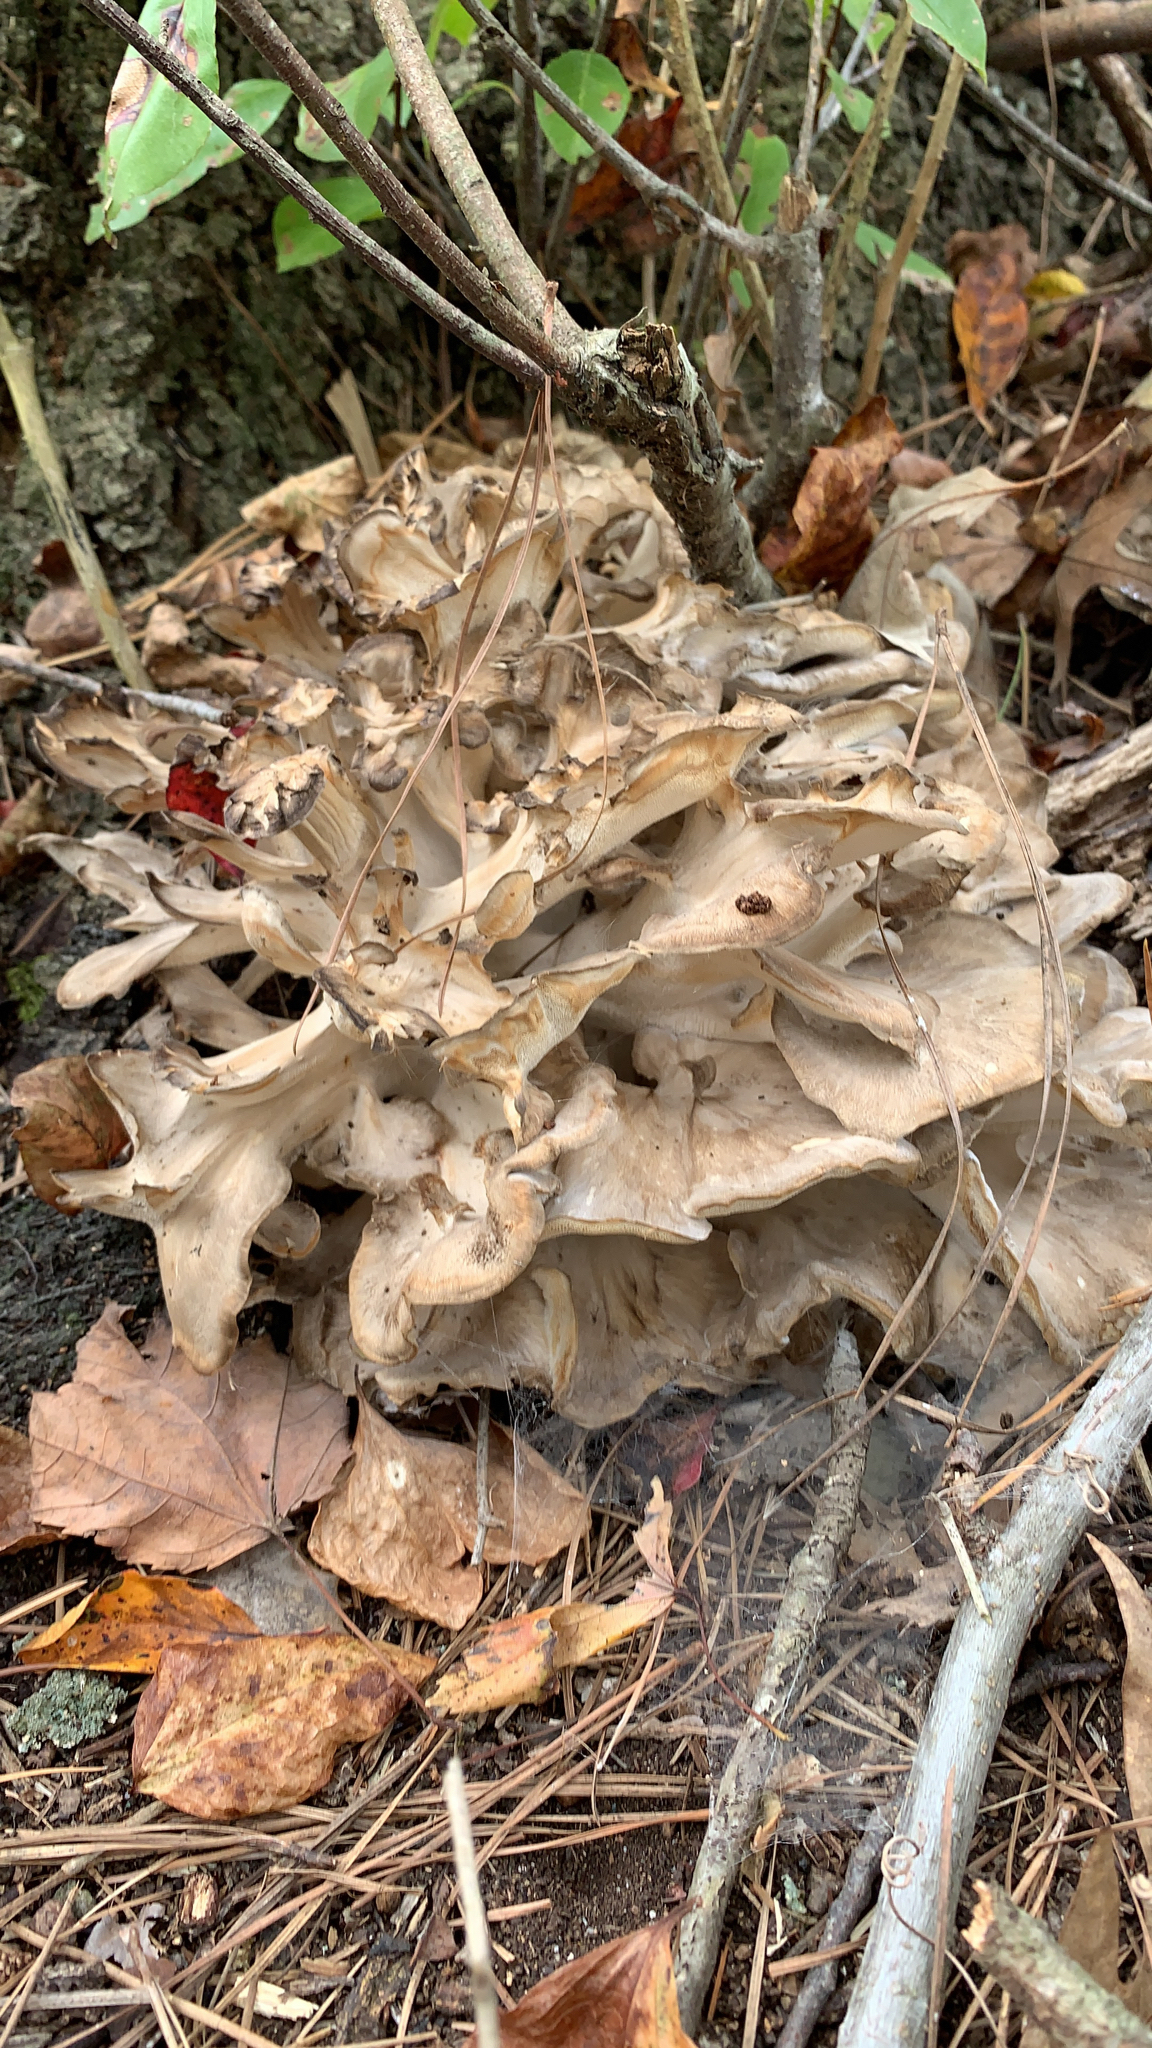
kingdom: Fungi
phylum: Basidiomycota
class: Agaricomycetes
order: Polyporales
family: Grifolaceae
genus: Grifola
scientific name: Grifola frondosa
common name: Hen of the woods
